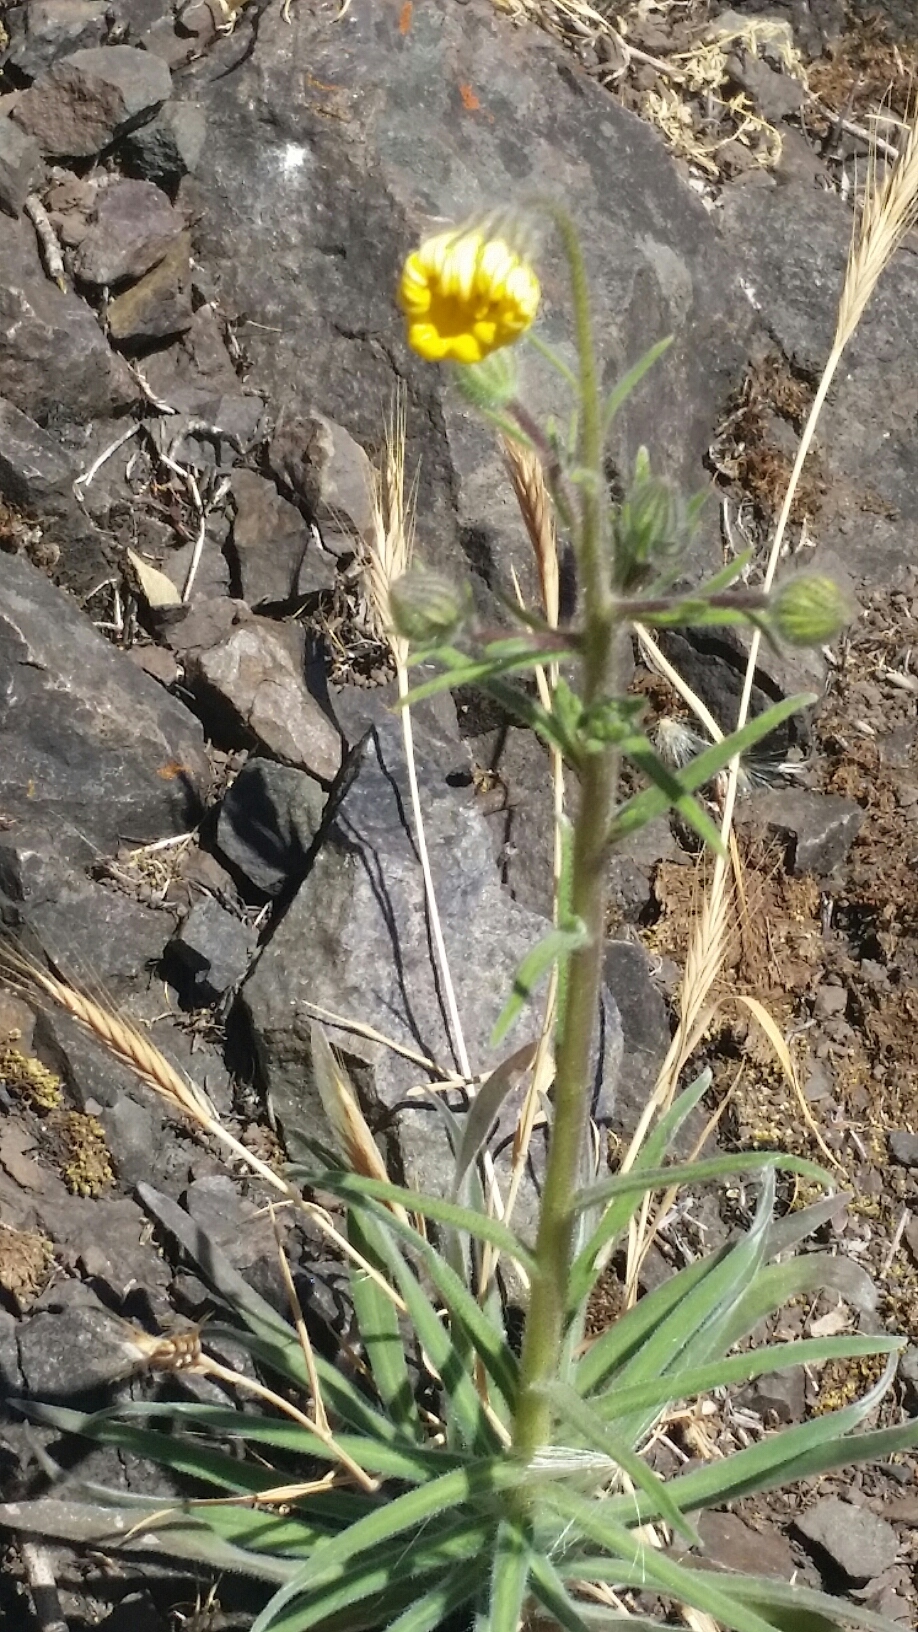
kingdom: Plantae
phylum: Tracheophyta
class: Magnoliopsida
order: Asterales
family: Asteraceae
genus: Madia
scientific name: Madia elegans
